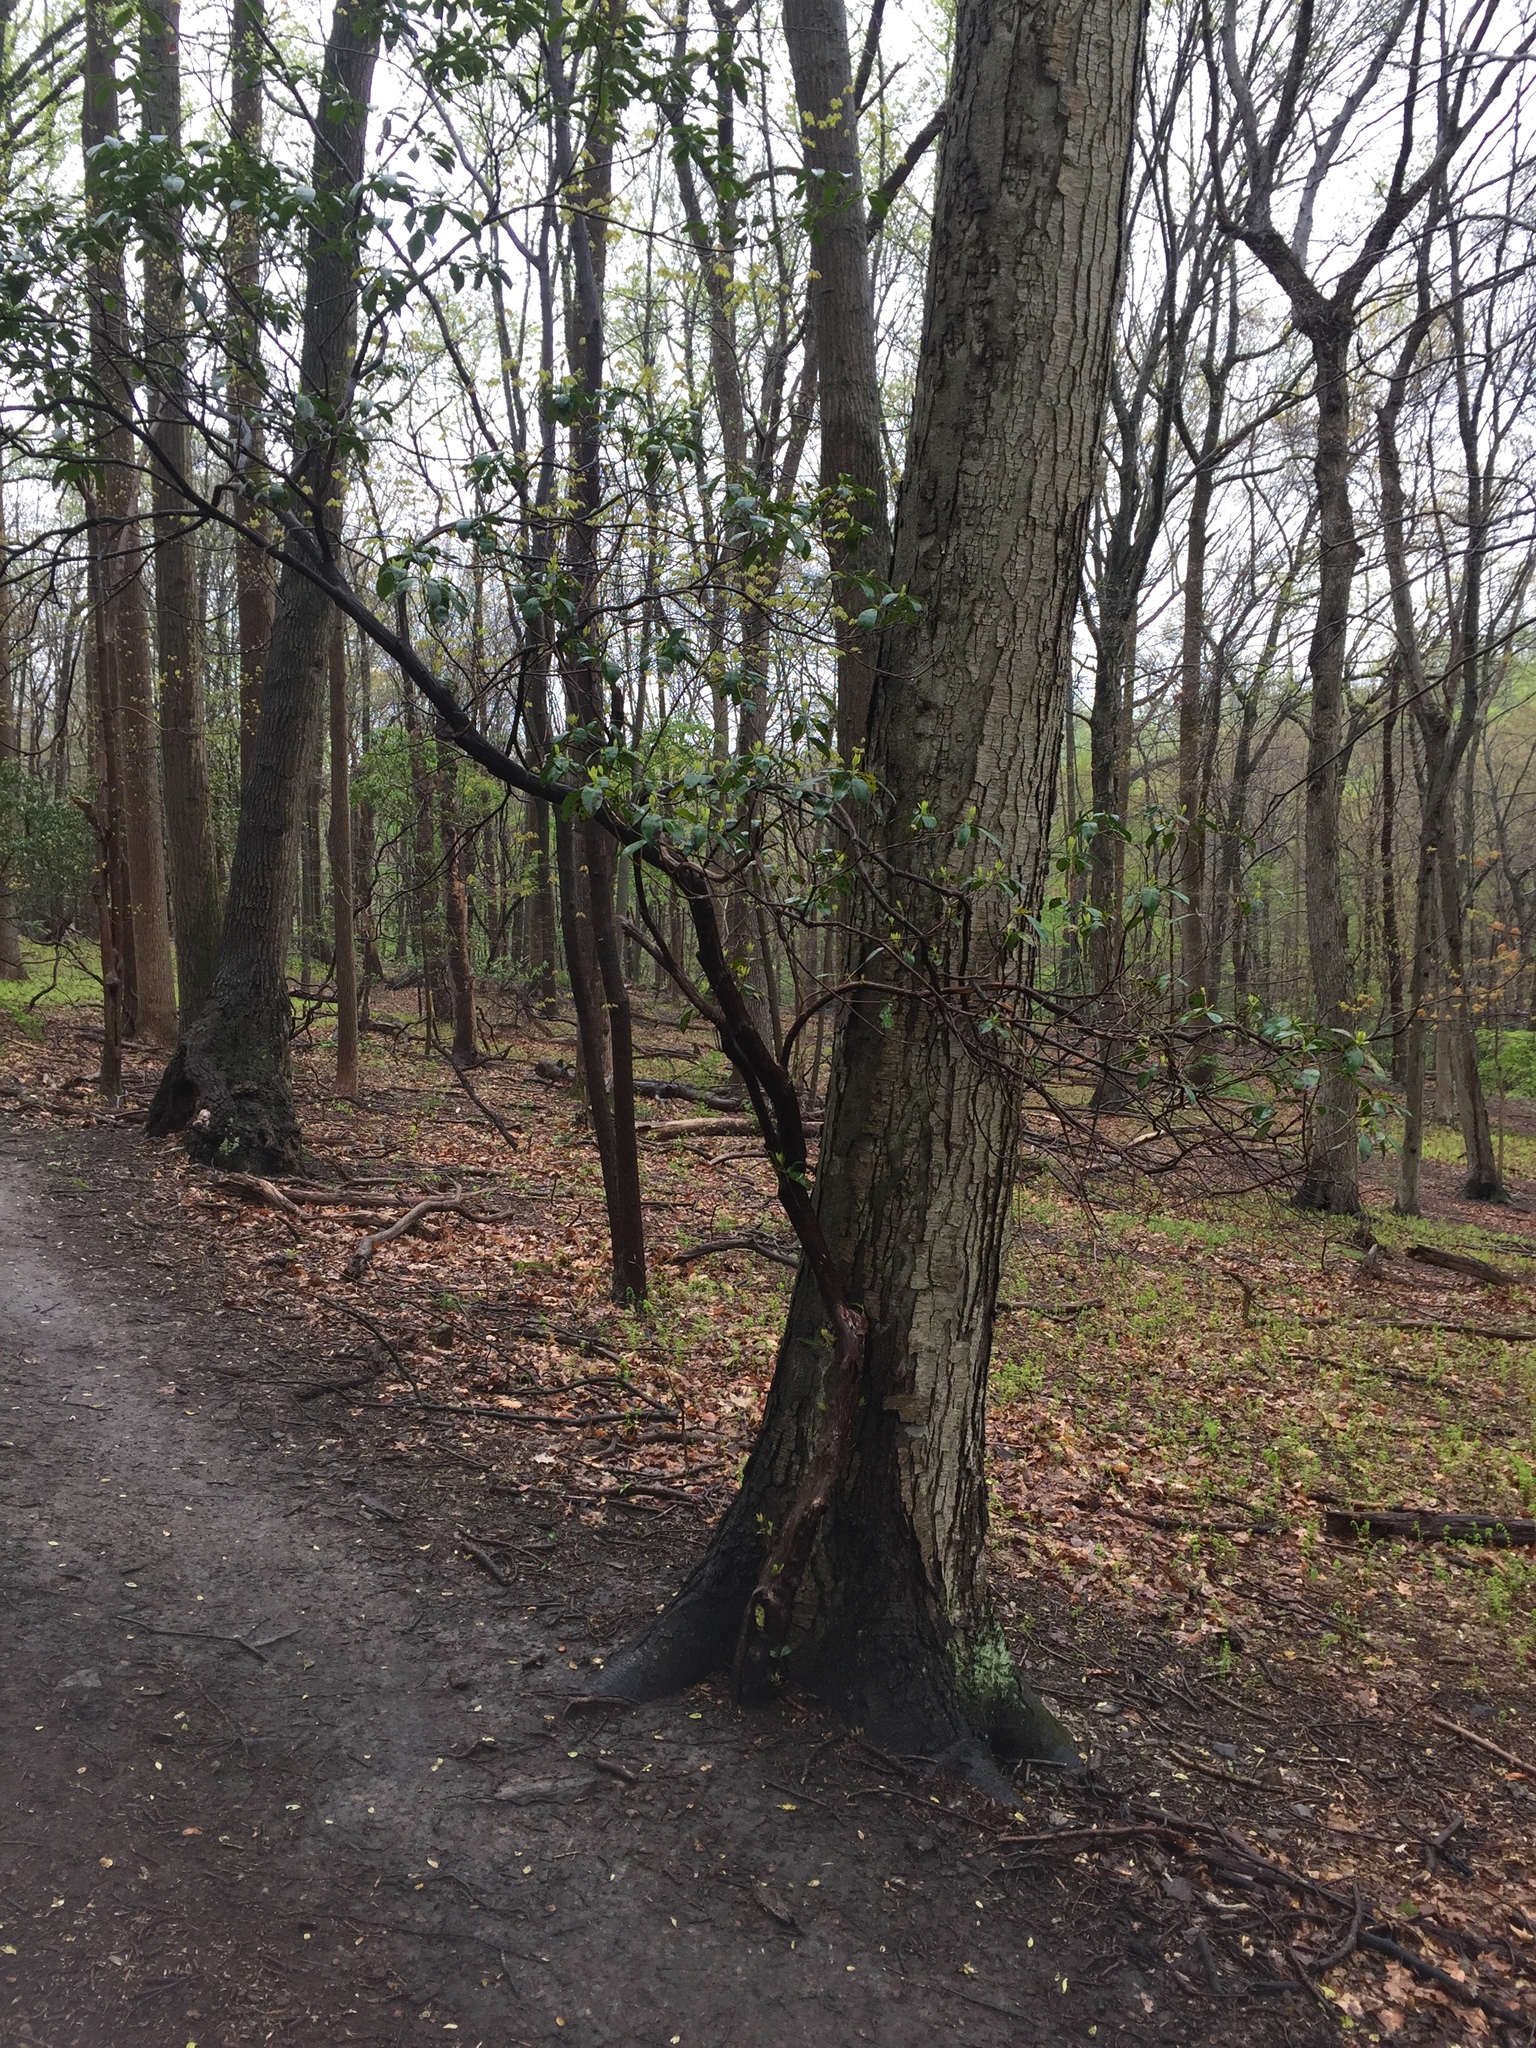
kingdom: Plantae
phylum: Tracheophyta
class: Magnoliopsida
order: Ericales
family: Ericaceae
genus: Kalmia
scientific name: Kalmia latifolia
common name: Mountain-laurel
